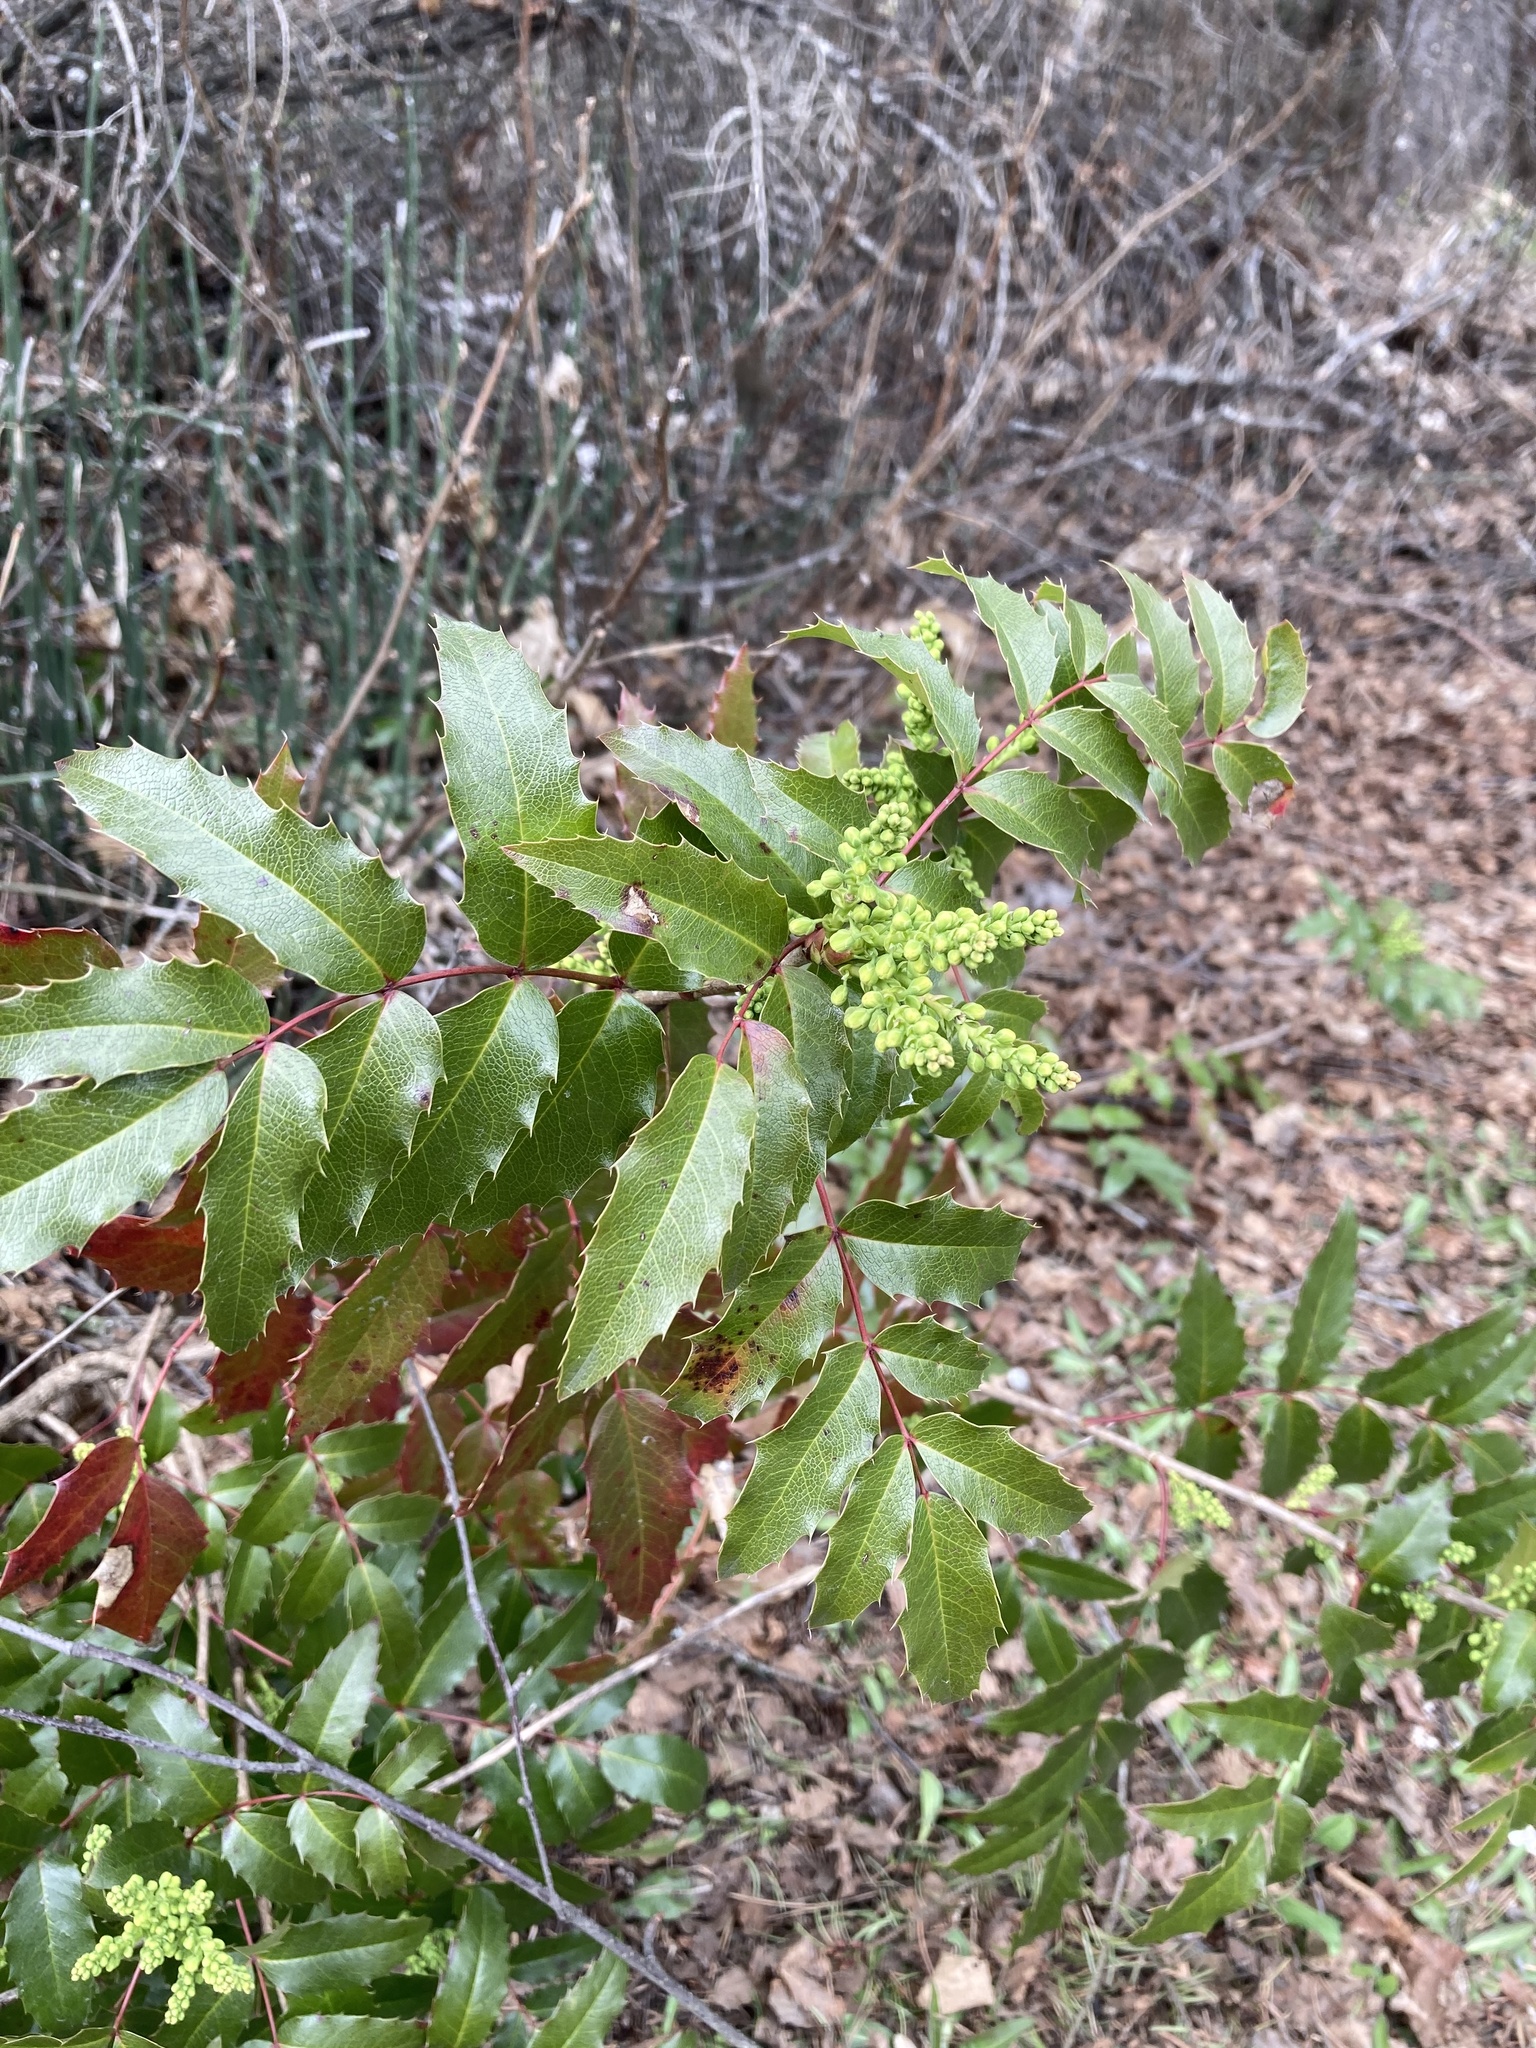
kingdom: Plantae
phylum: Tracheophyta
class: Magnoliopsida
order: Ranunculales
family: Berberidaceae
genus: Mahonia
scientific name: Mahonia aquifolium
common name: Oregon-grape
